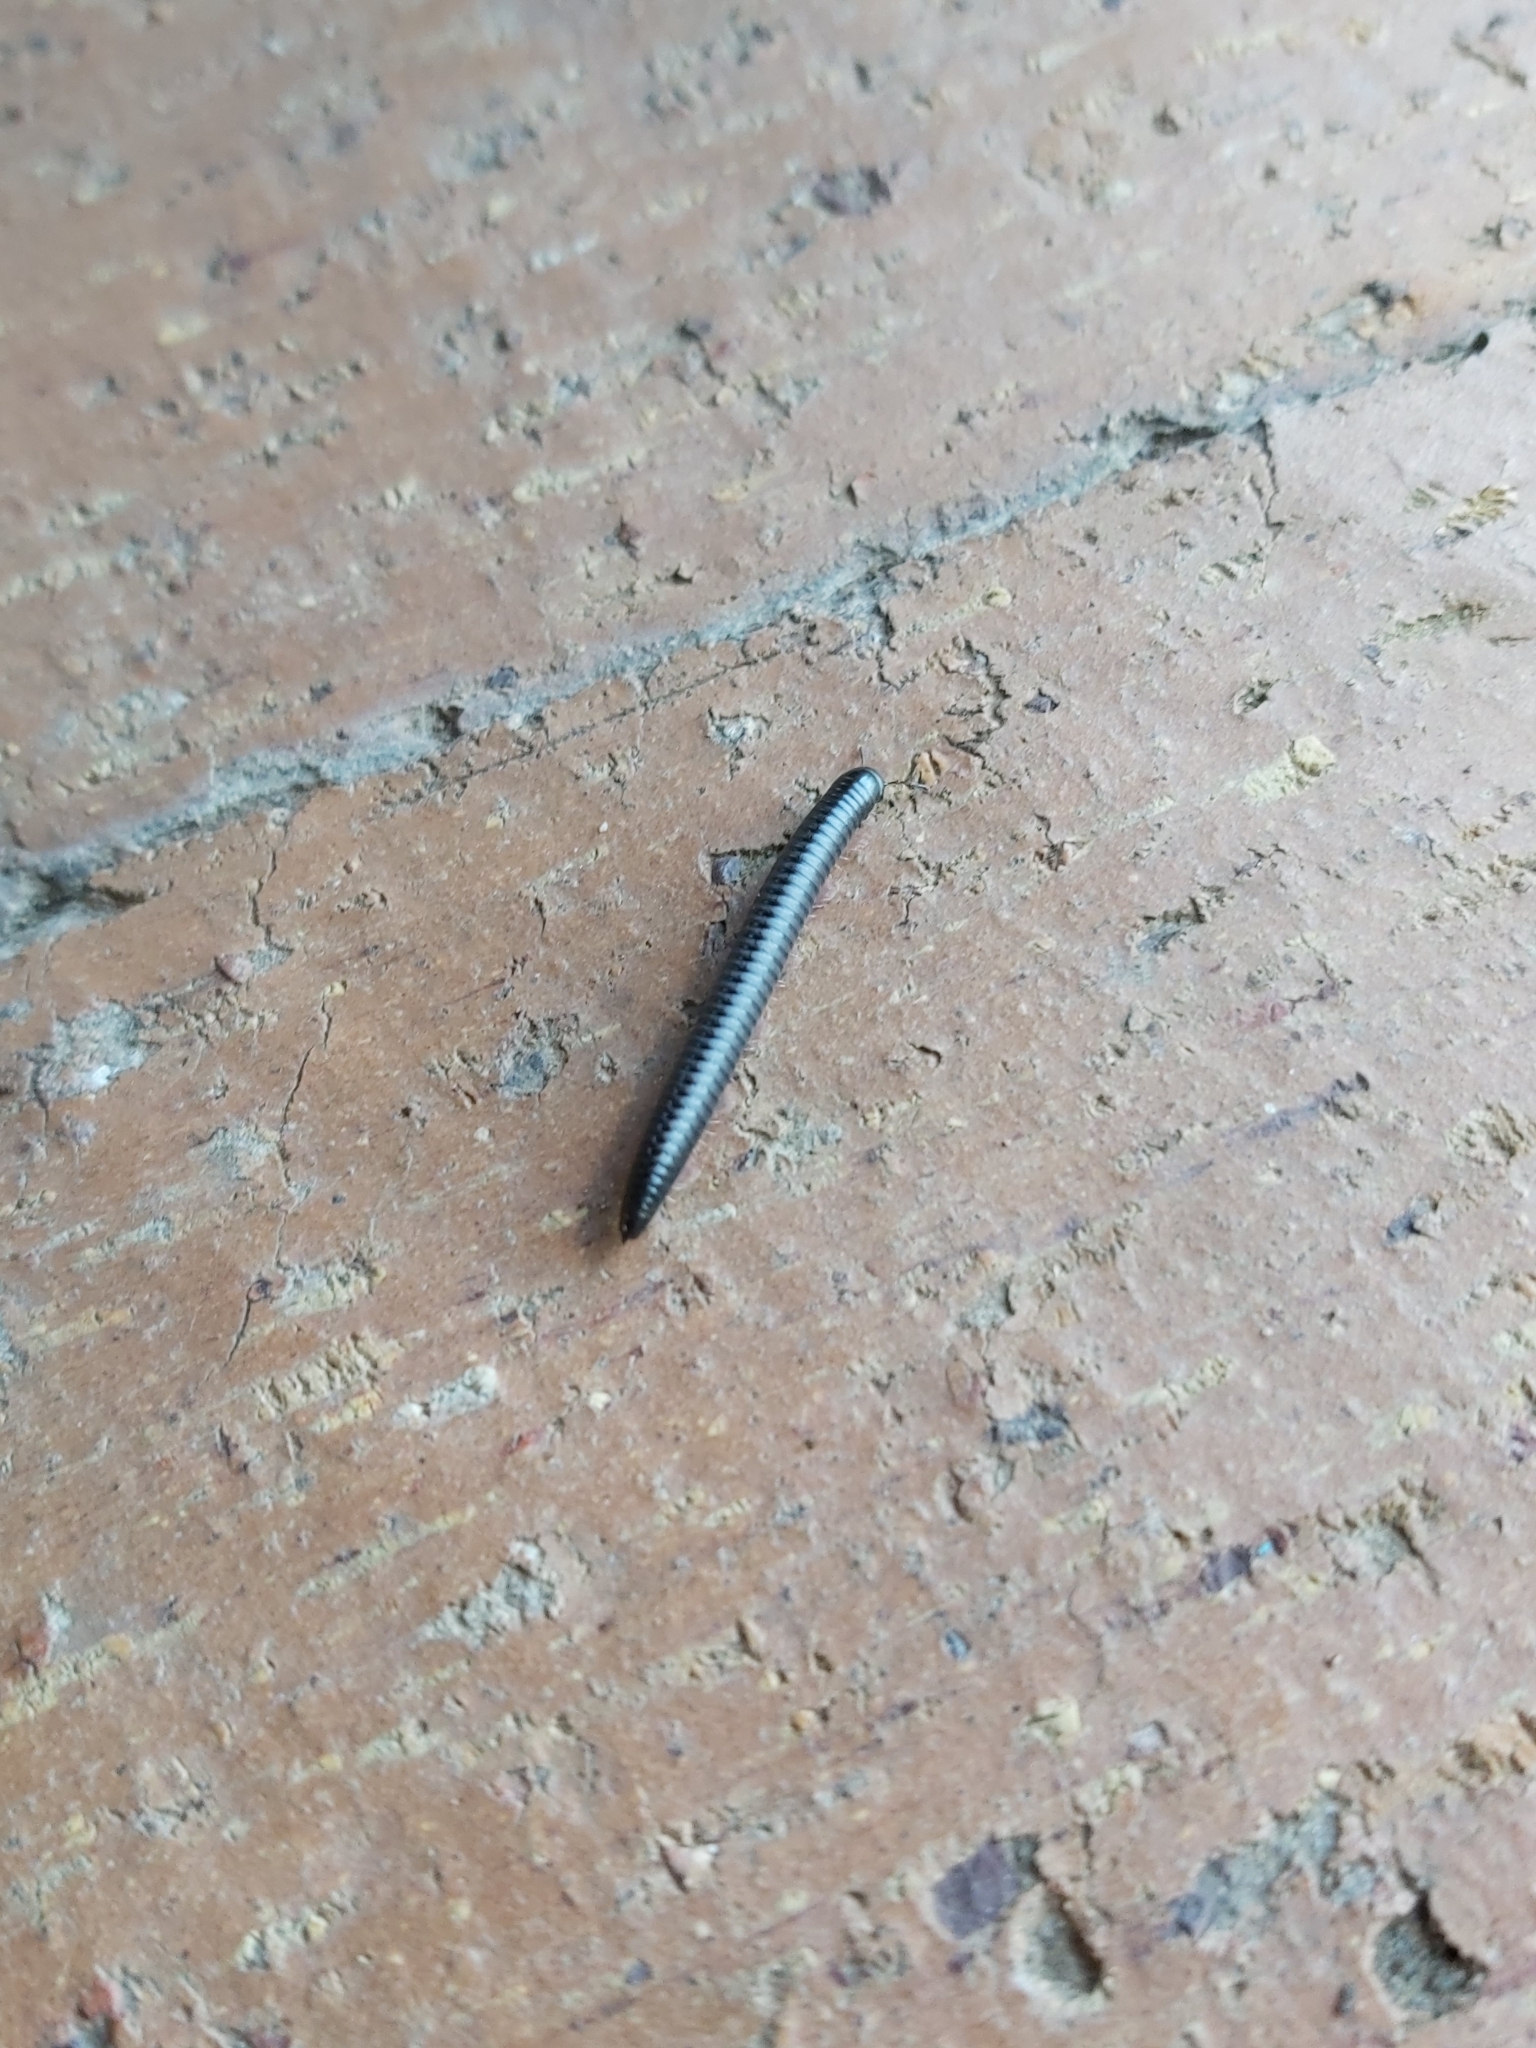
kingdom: Animalia
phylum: Arthropoda
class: Diplopoda
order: Julida
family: Julidae
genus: Ommatoiulus
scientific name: Ommatoiulus moreleti
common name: Portuguese millipede
